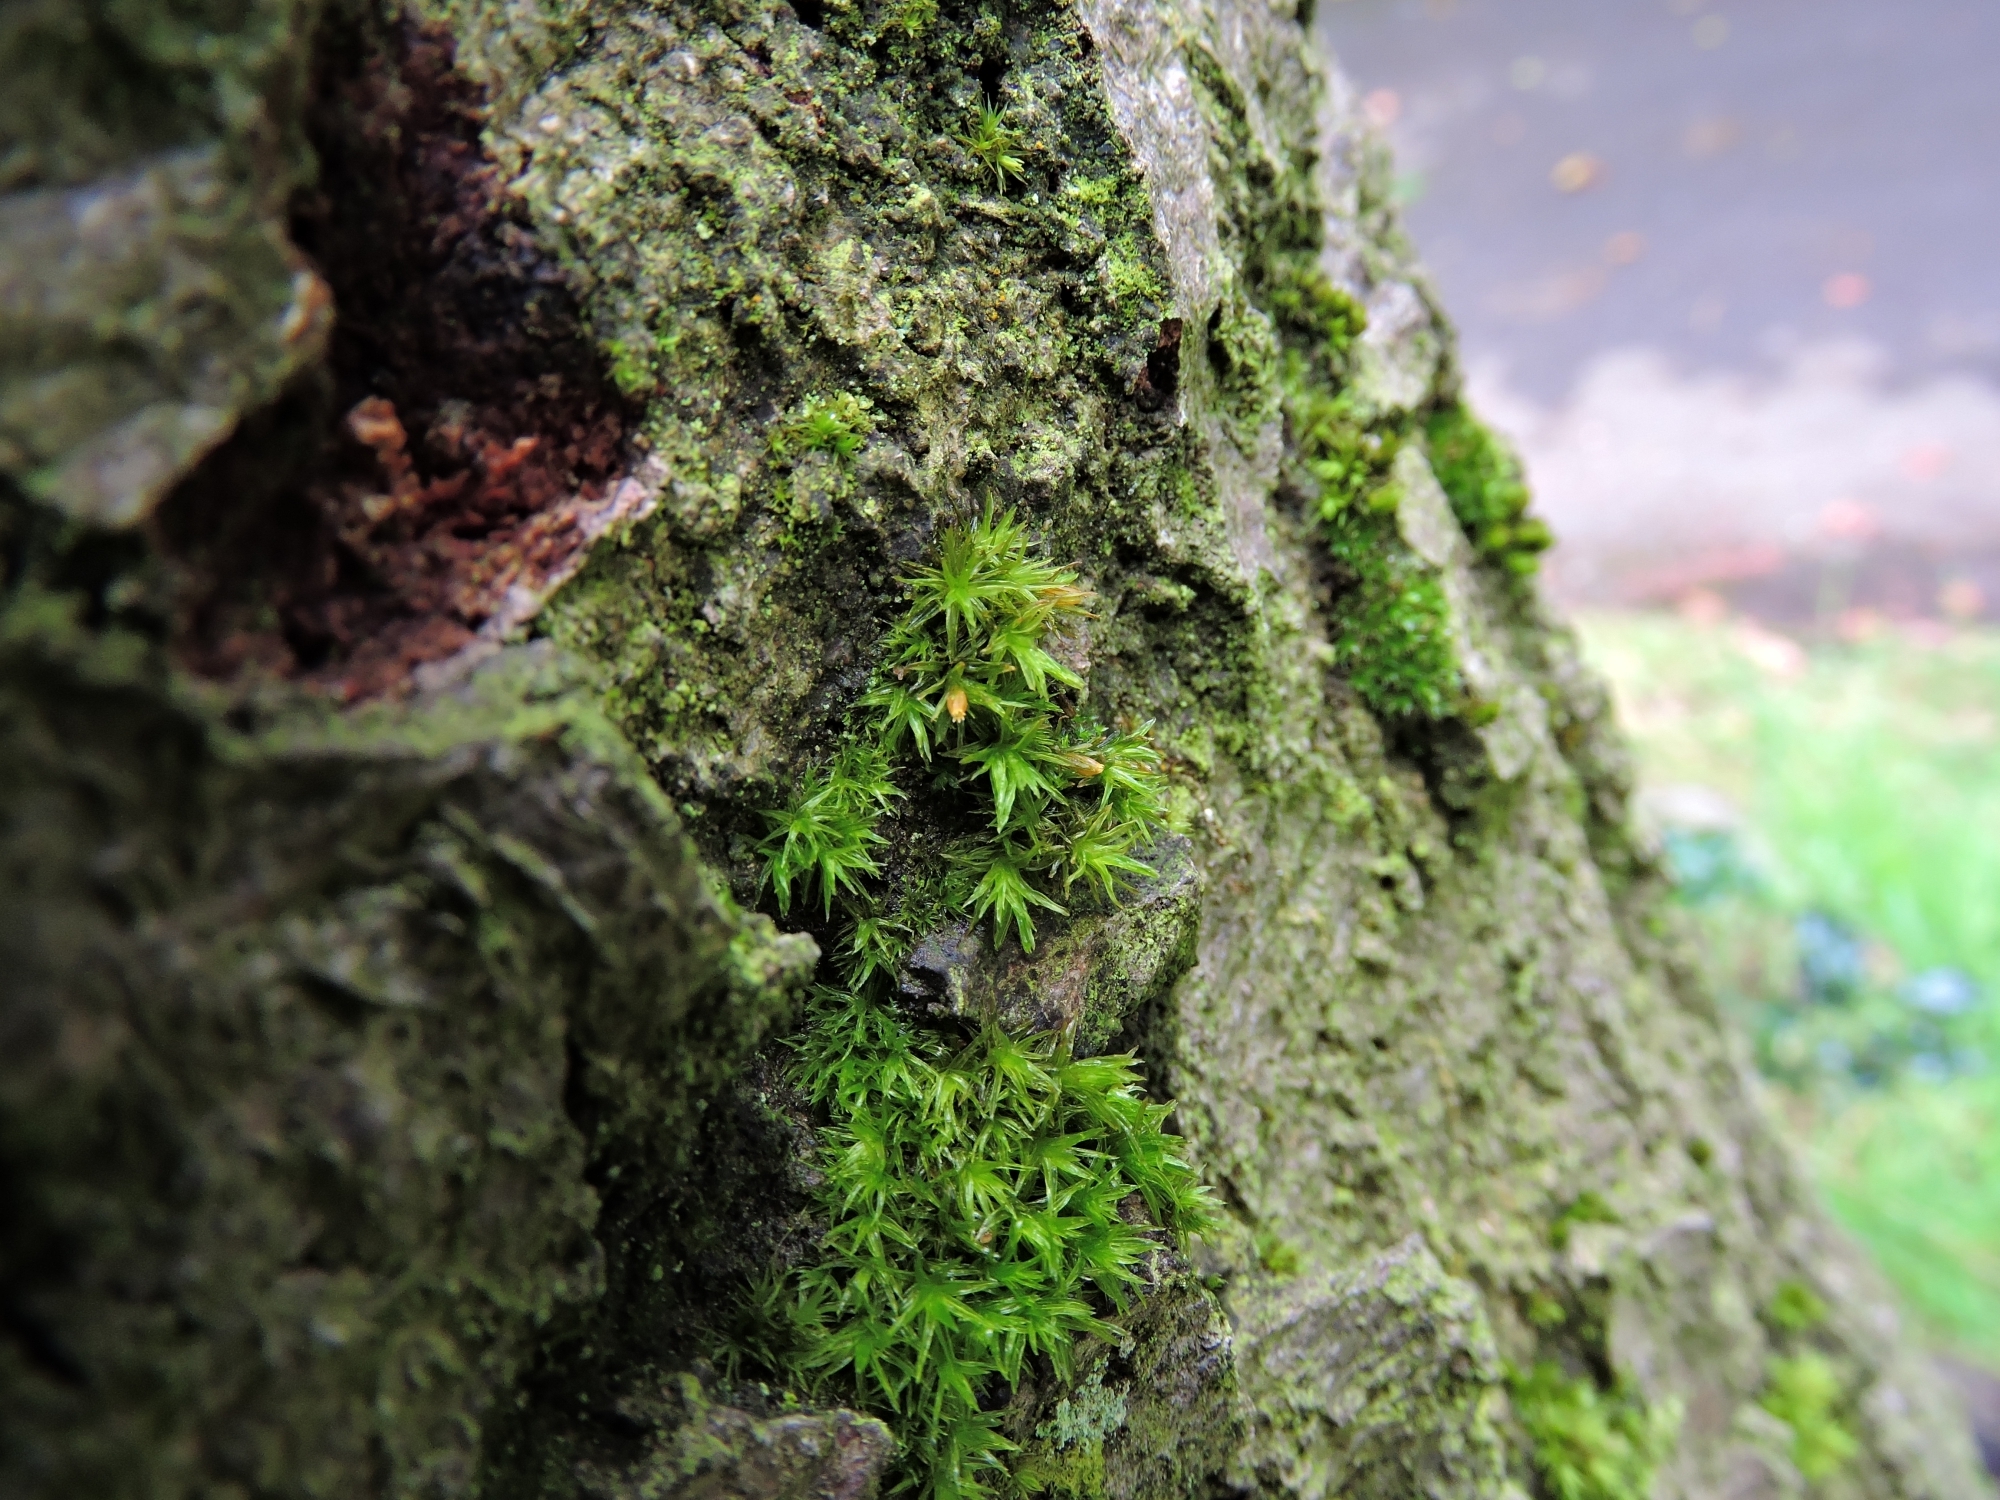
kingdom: Plantae
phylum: Bryophyta
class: Bryopsida
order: Orthotrichales
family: Orthotrichaceae
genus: Lewinskya
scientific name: Lewinskya affinis
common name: Wood bristle-moss
